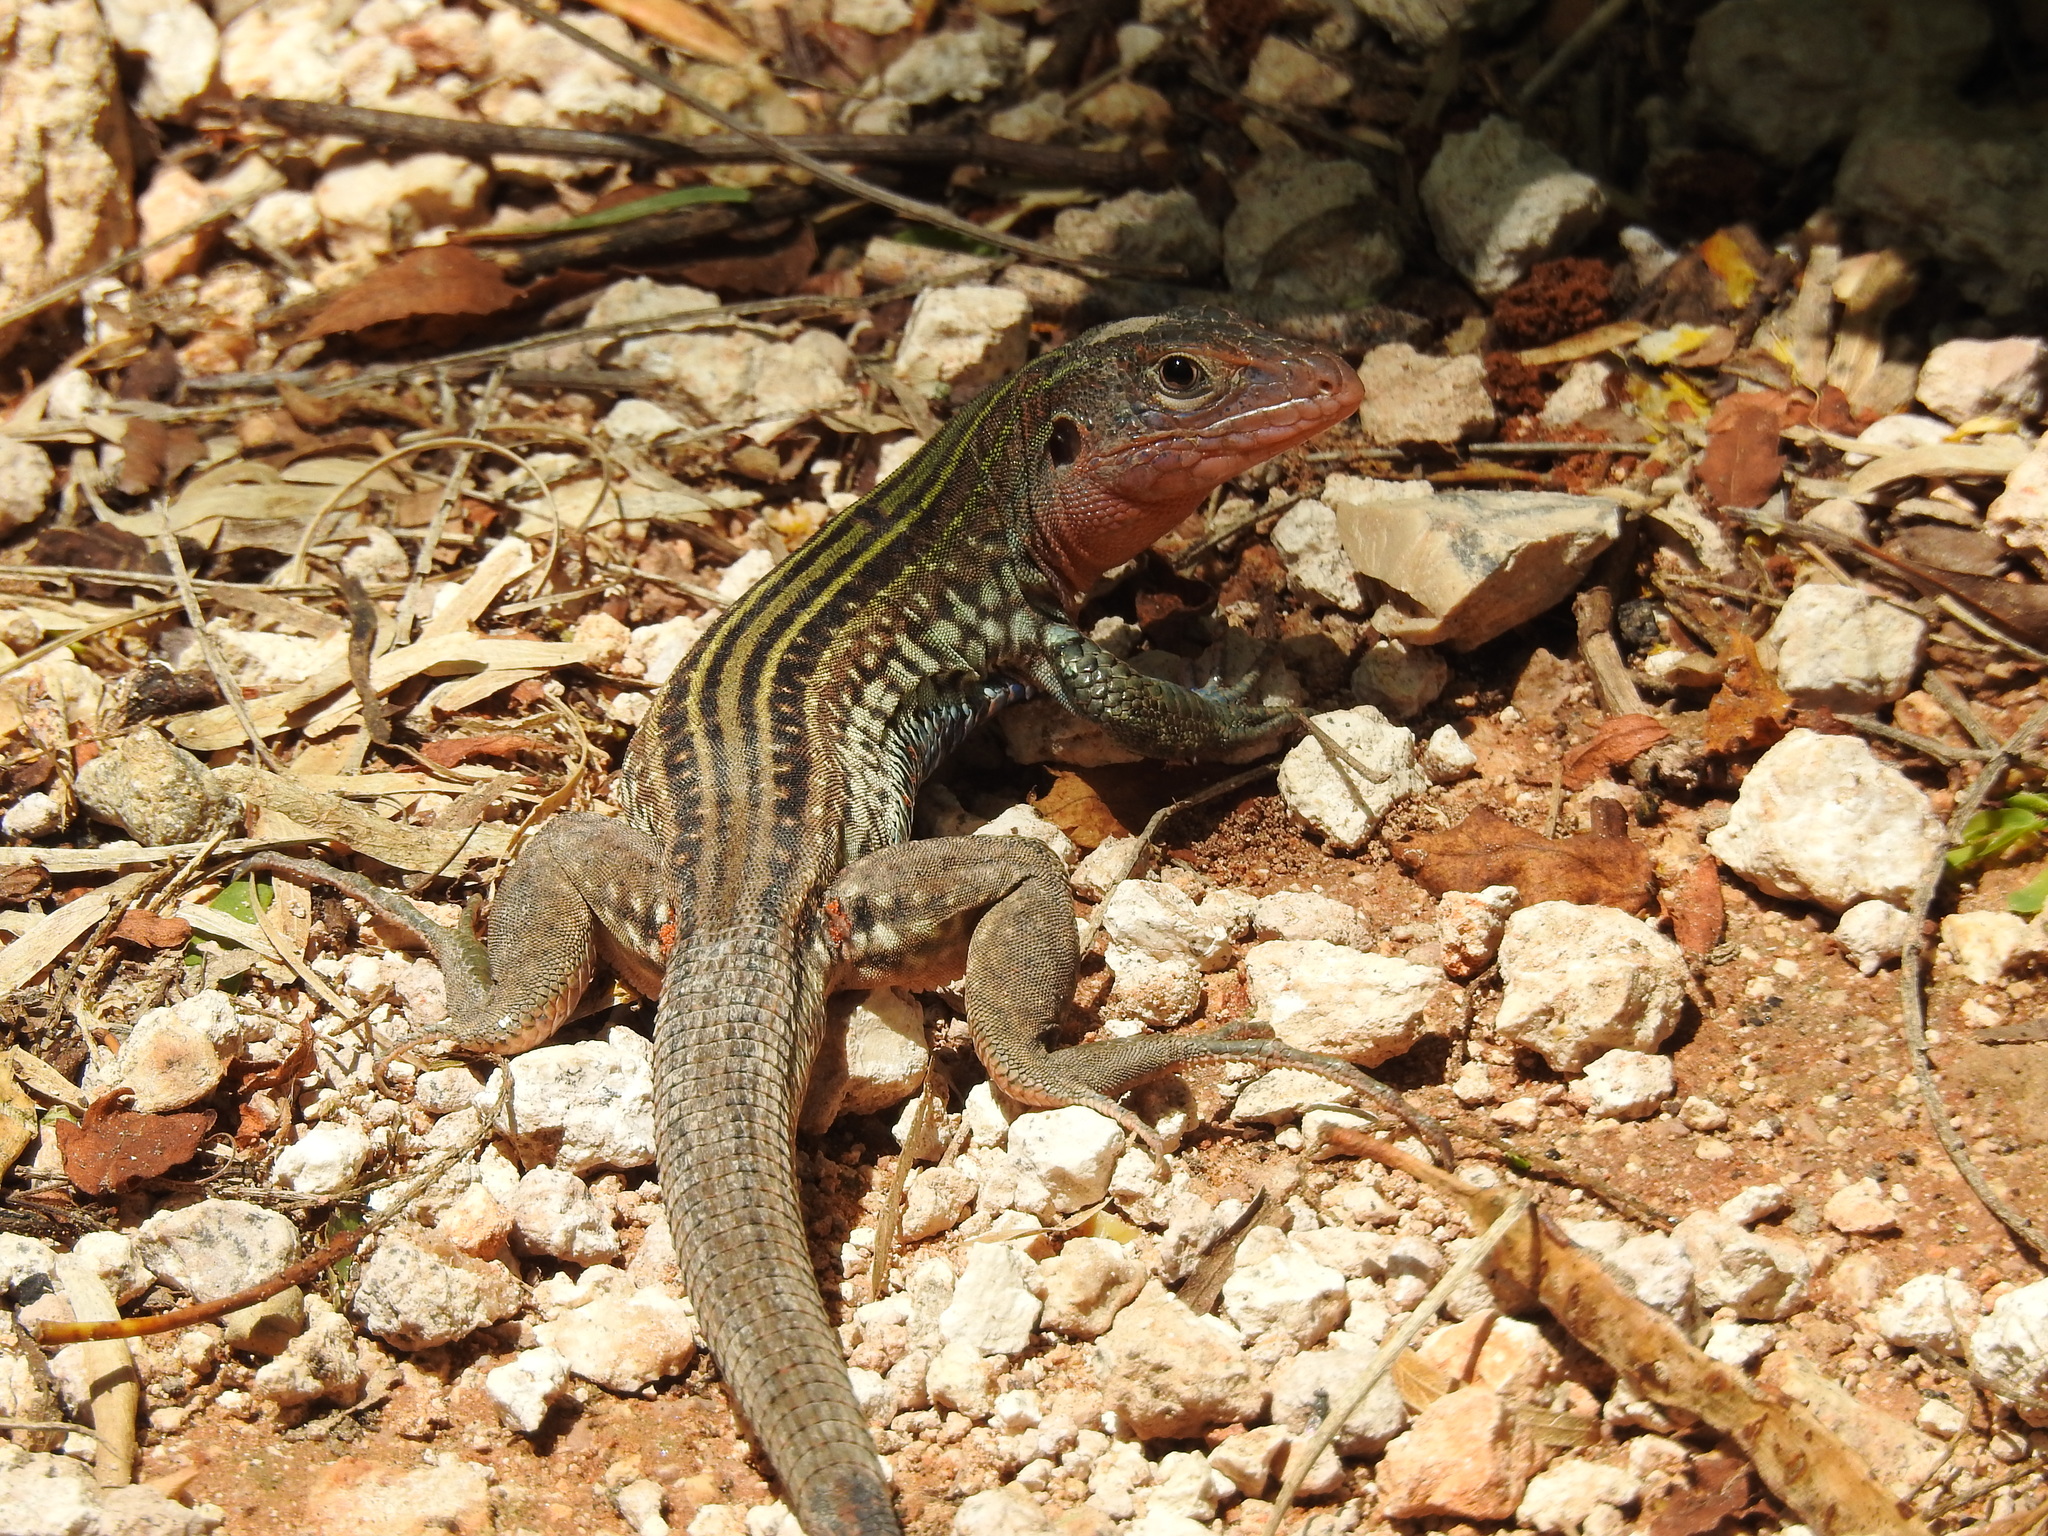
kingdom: Animalia
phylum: Chordata
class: Squamata
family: Teiidae
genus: Aspidoscelis
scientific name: Aspidoscelis gularis
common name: Eastern spotted whiptail
